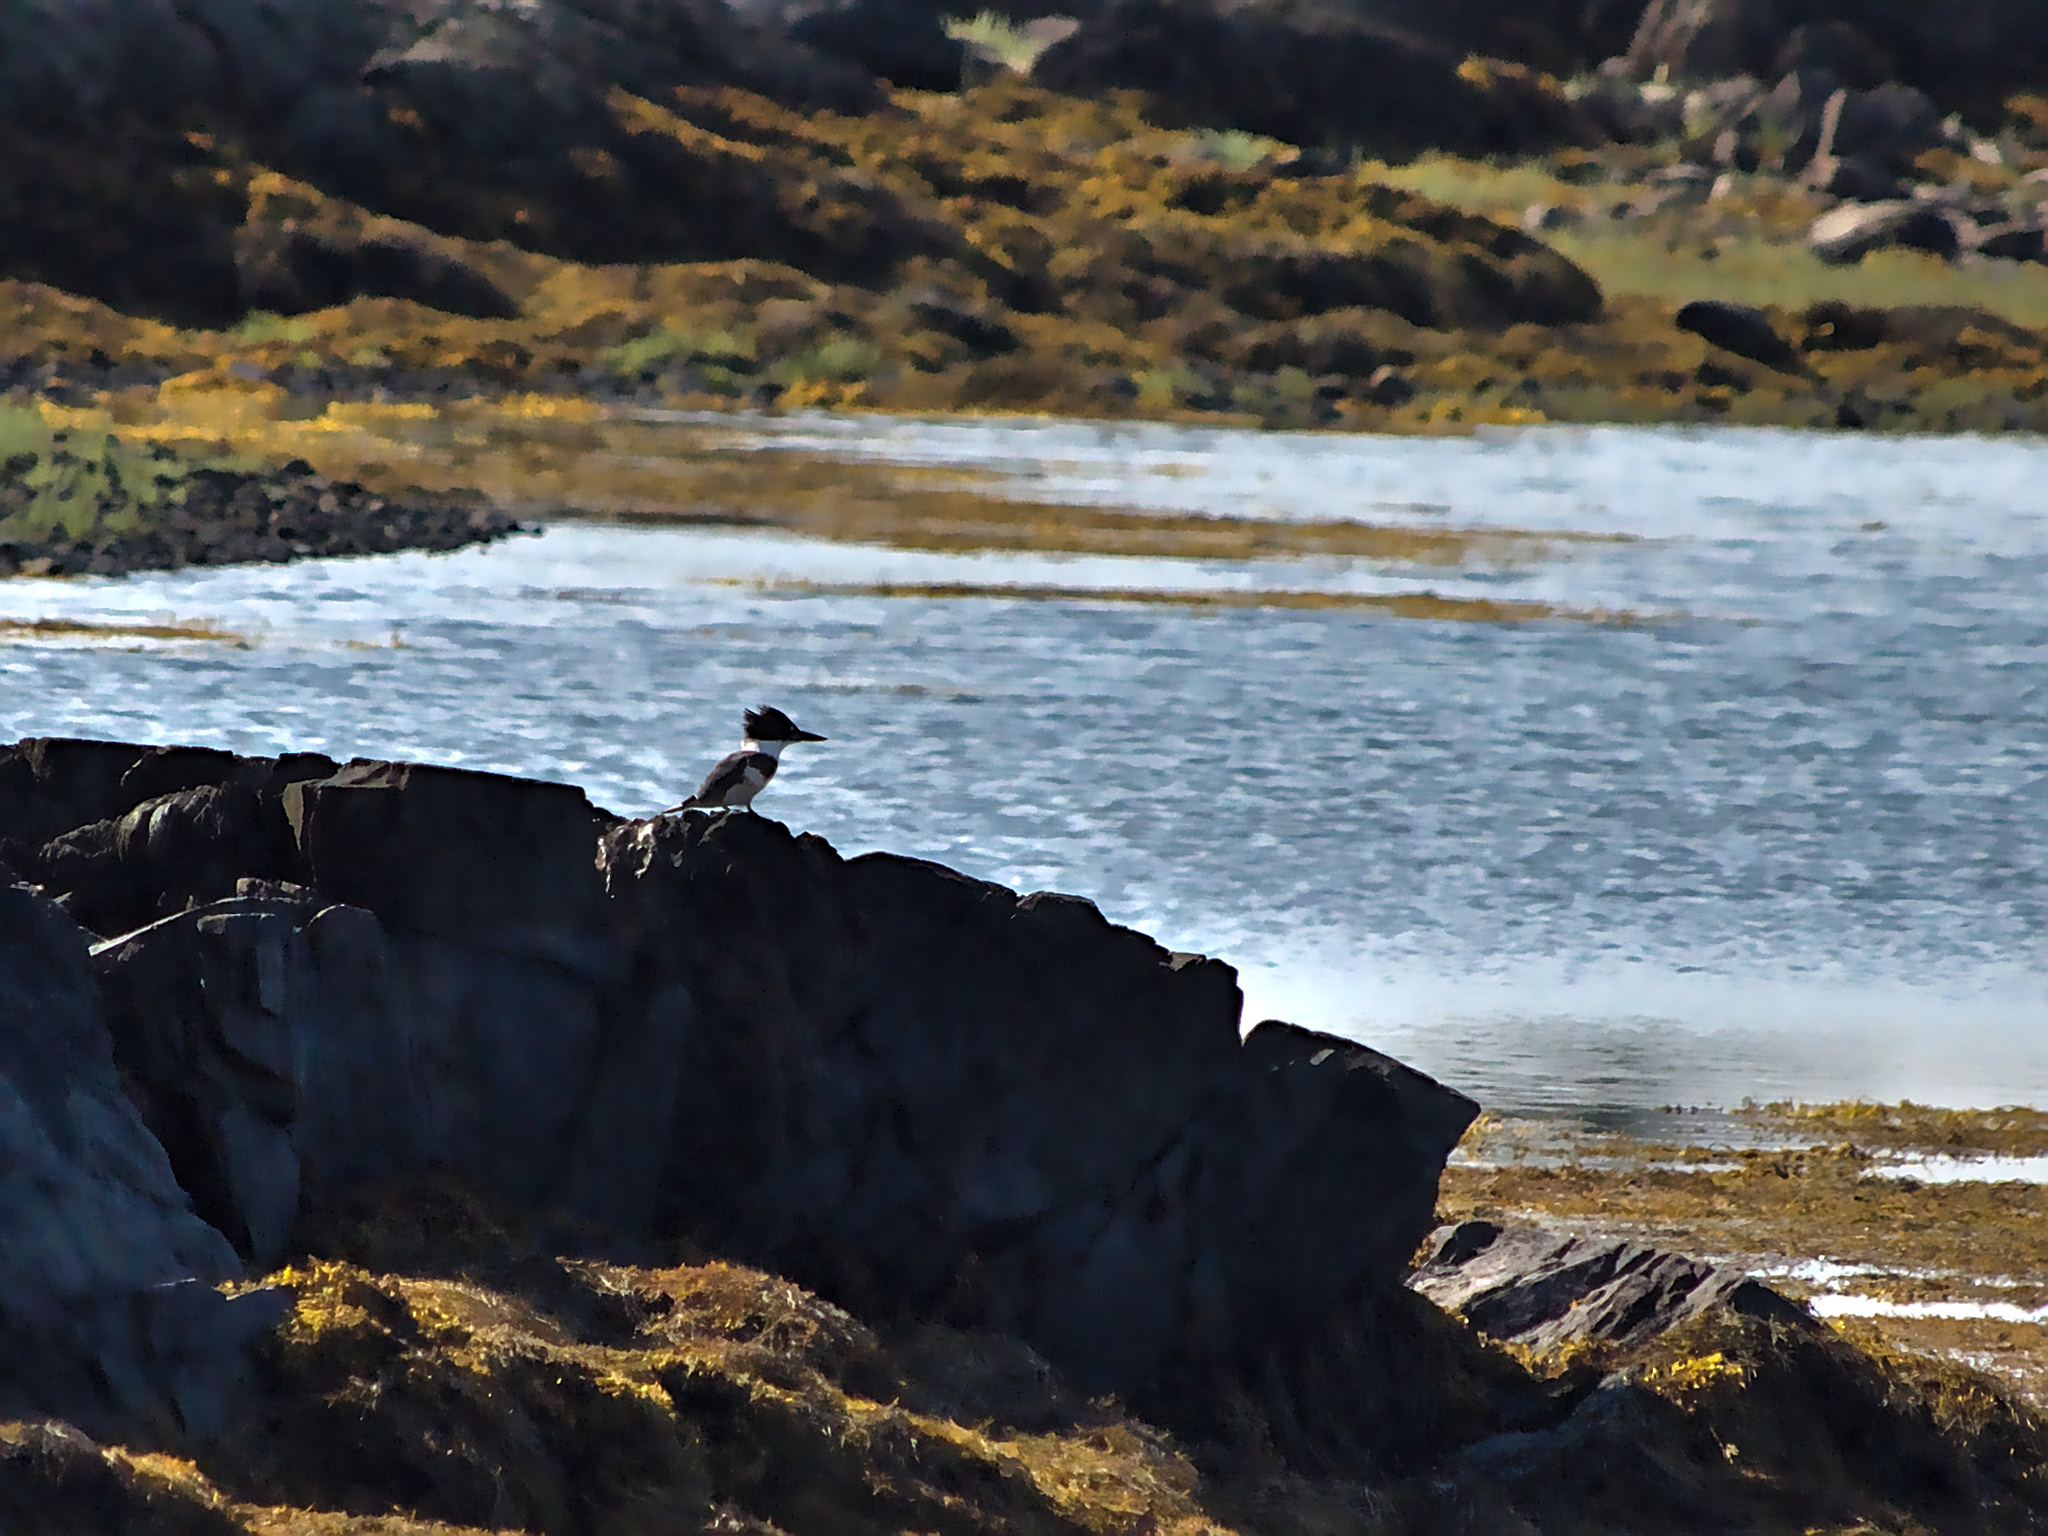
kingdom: Animalia
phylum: Chordata
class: Aves
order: Coraciiformes
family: Alcedinidae
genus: Megaceryle
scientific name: Megaceryle alcyon
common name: Belted kingfisher
